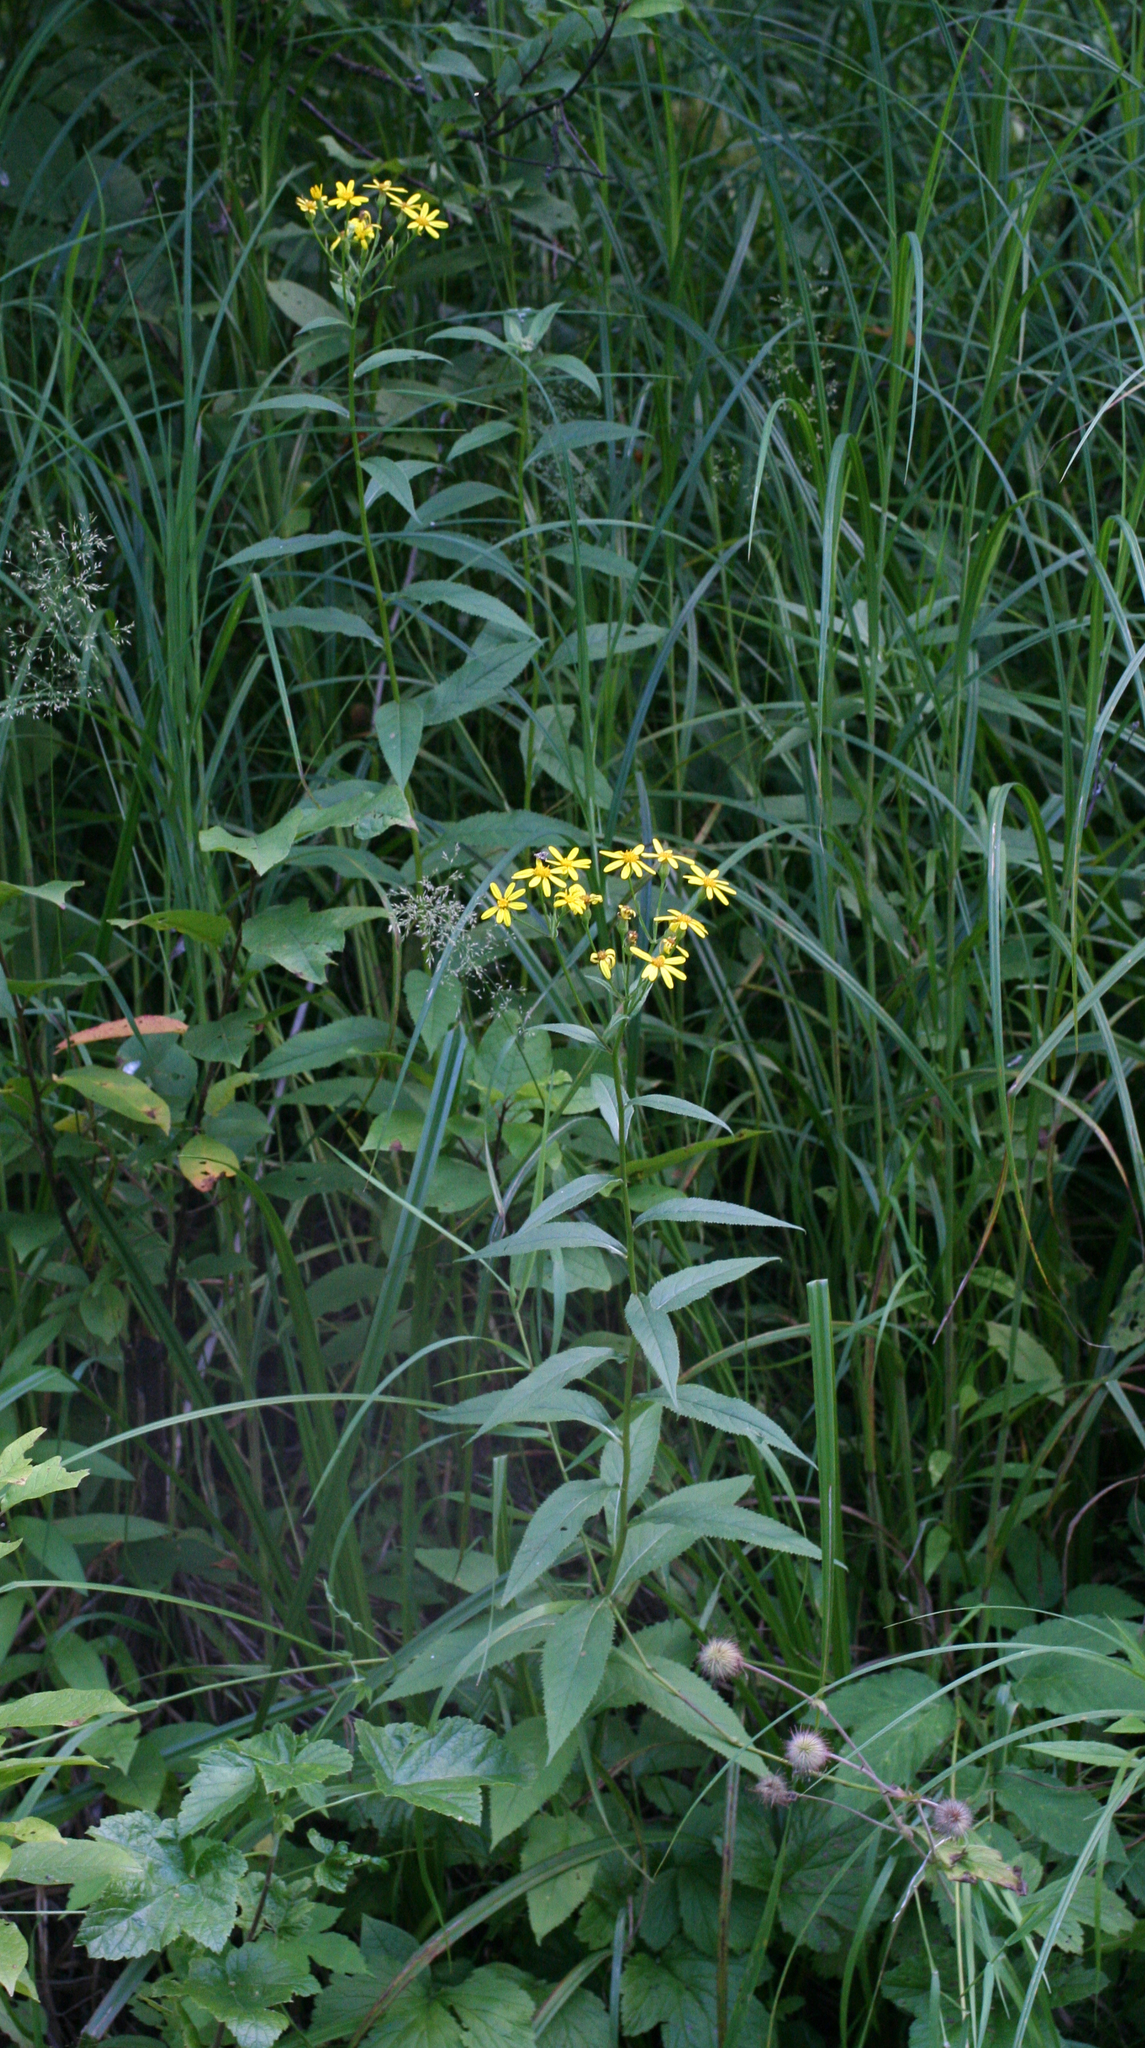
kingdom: Plantae
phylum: Tracheophyta
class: Magnoliopsida
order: Asterales
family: Asteraceae
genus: Senecio
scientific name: Senecio nemorensis
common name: Alpine ragwort
